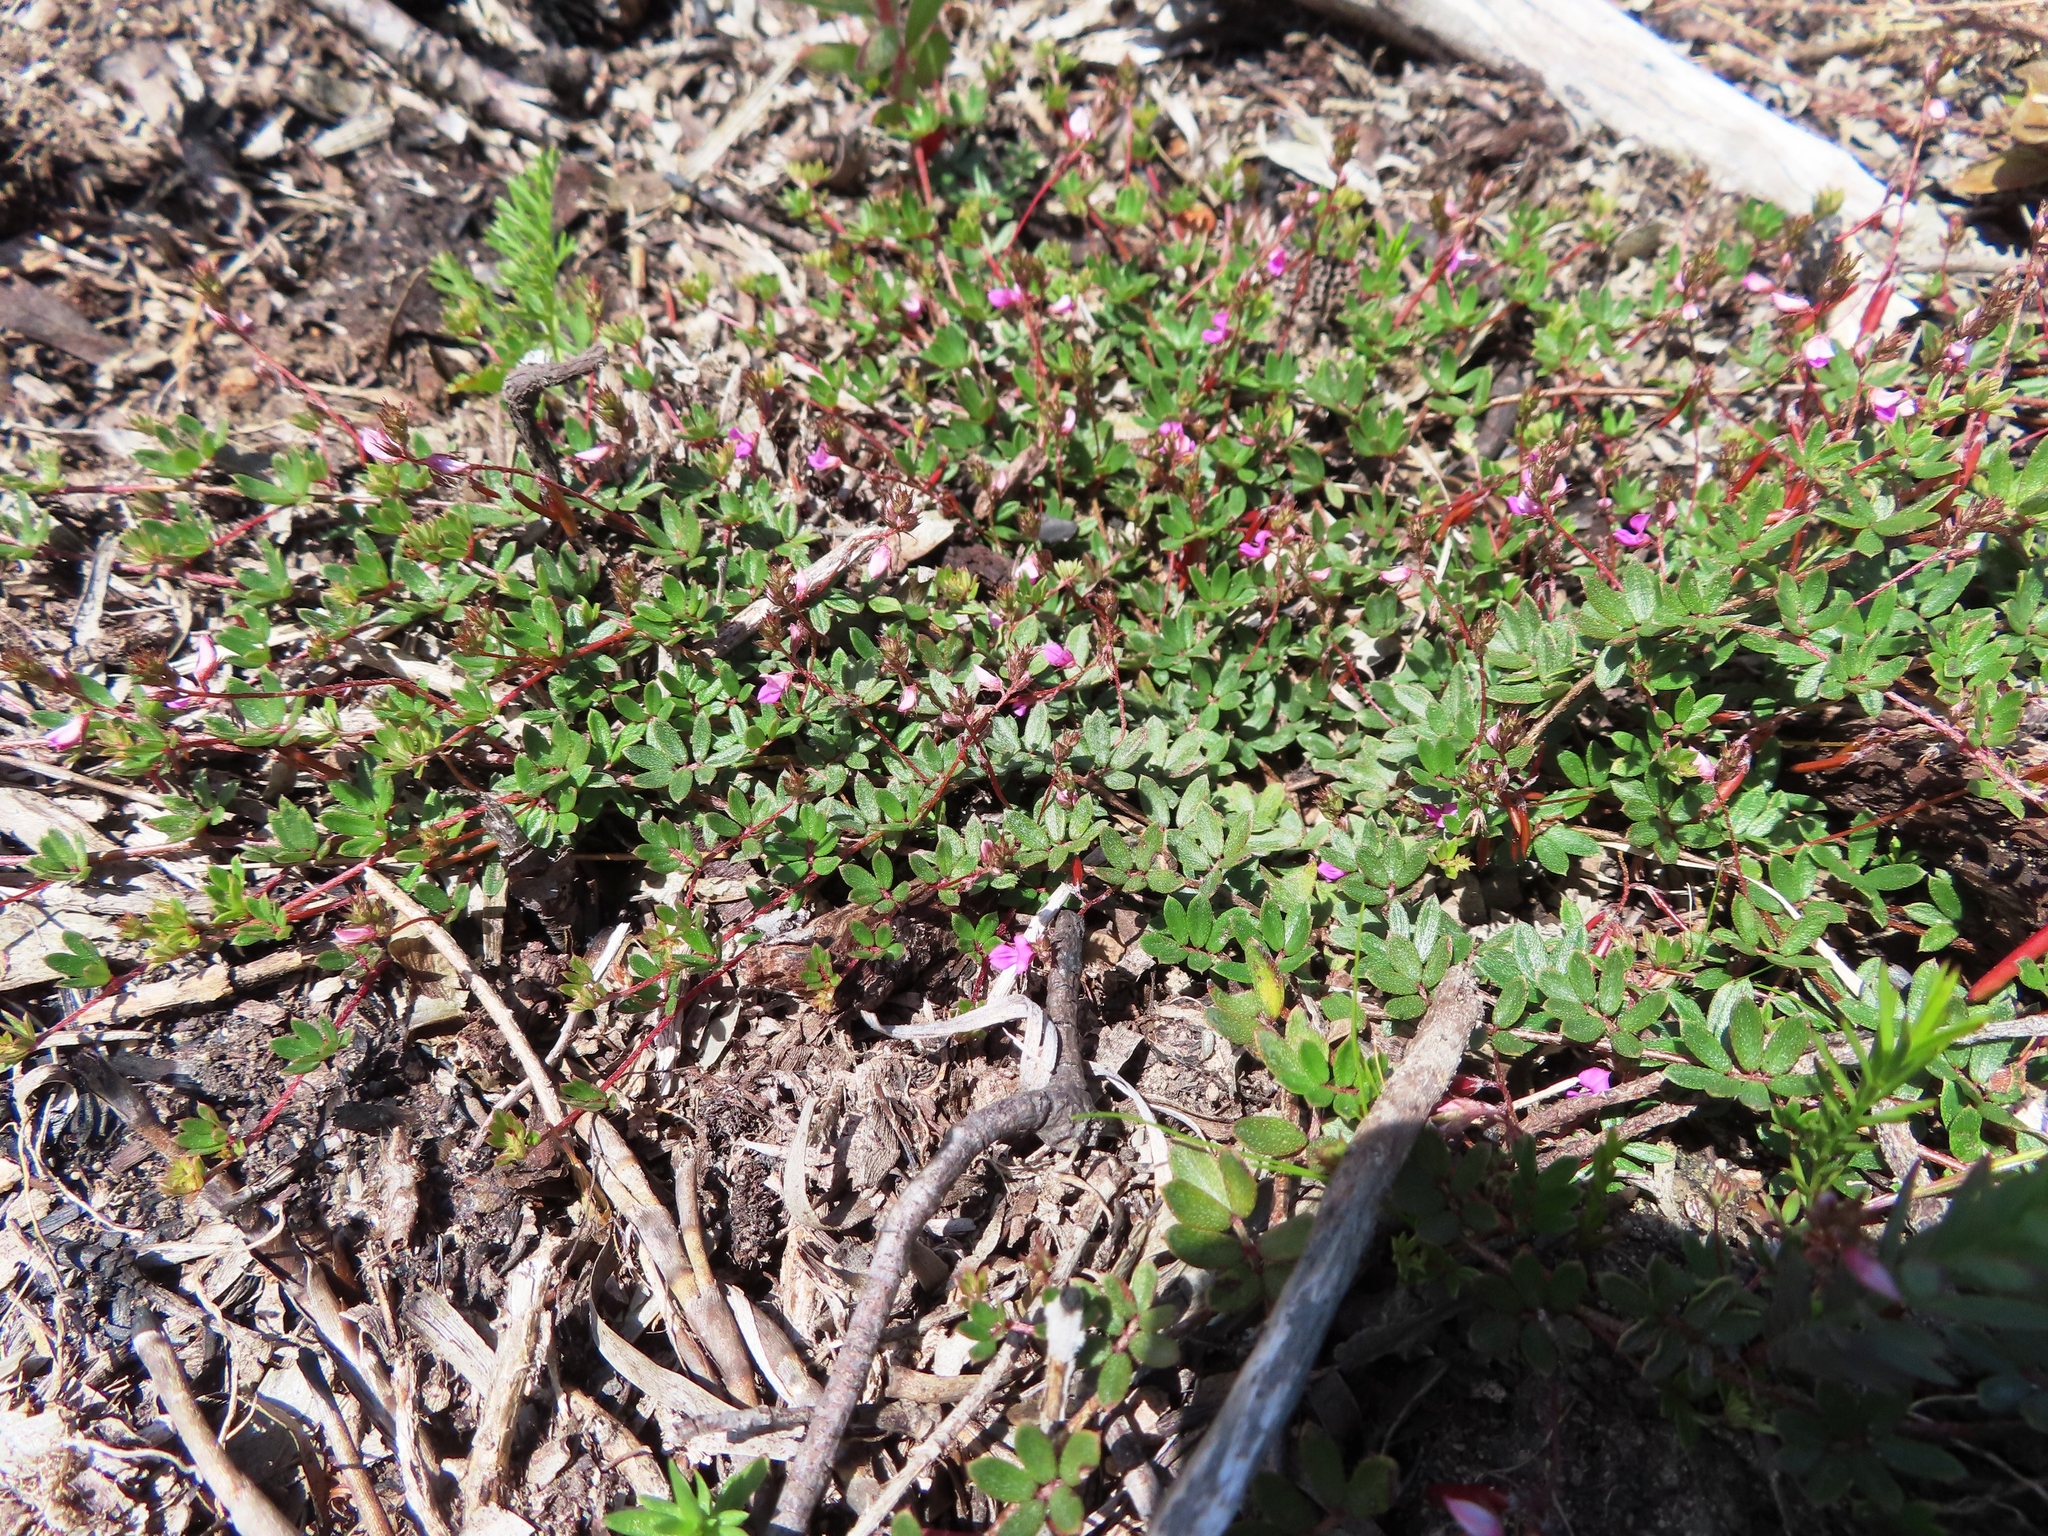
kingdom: Plantae
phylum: Tracheophyta
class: Magnoliopsida
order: Fabales
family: Fabaceae
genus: Indigofera
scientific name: Indigofera angustifolia
